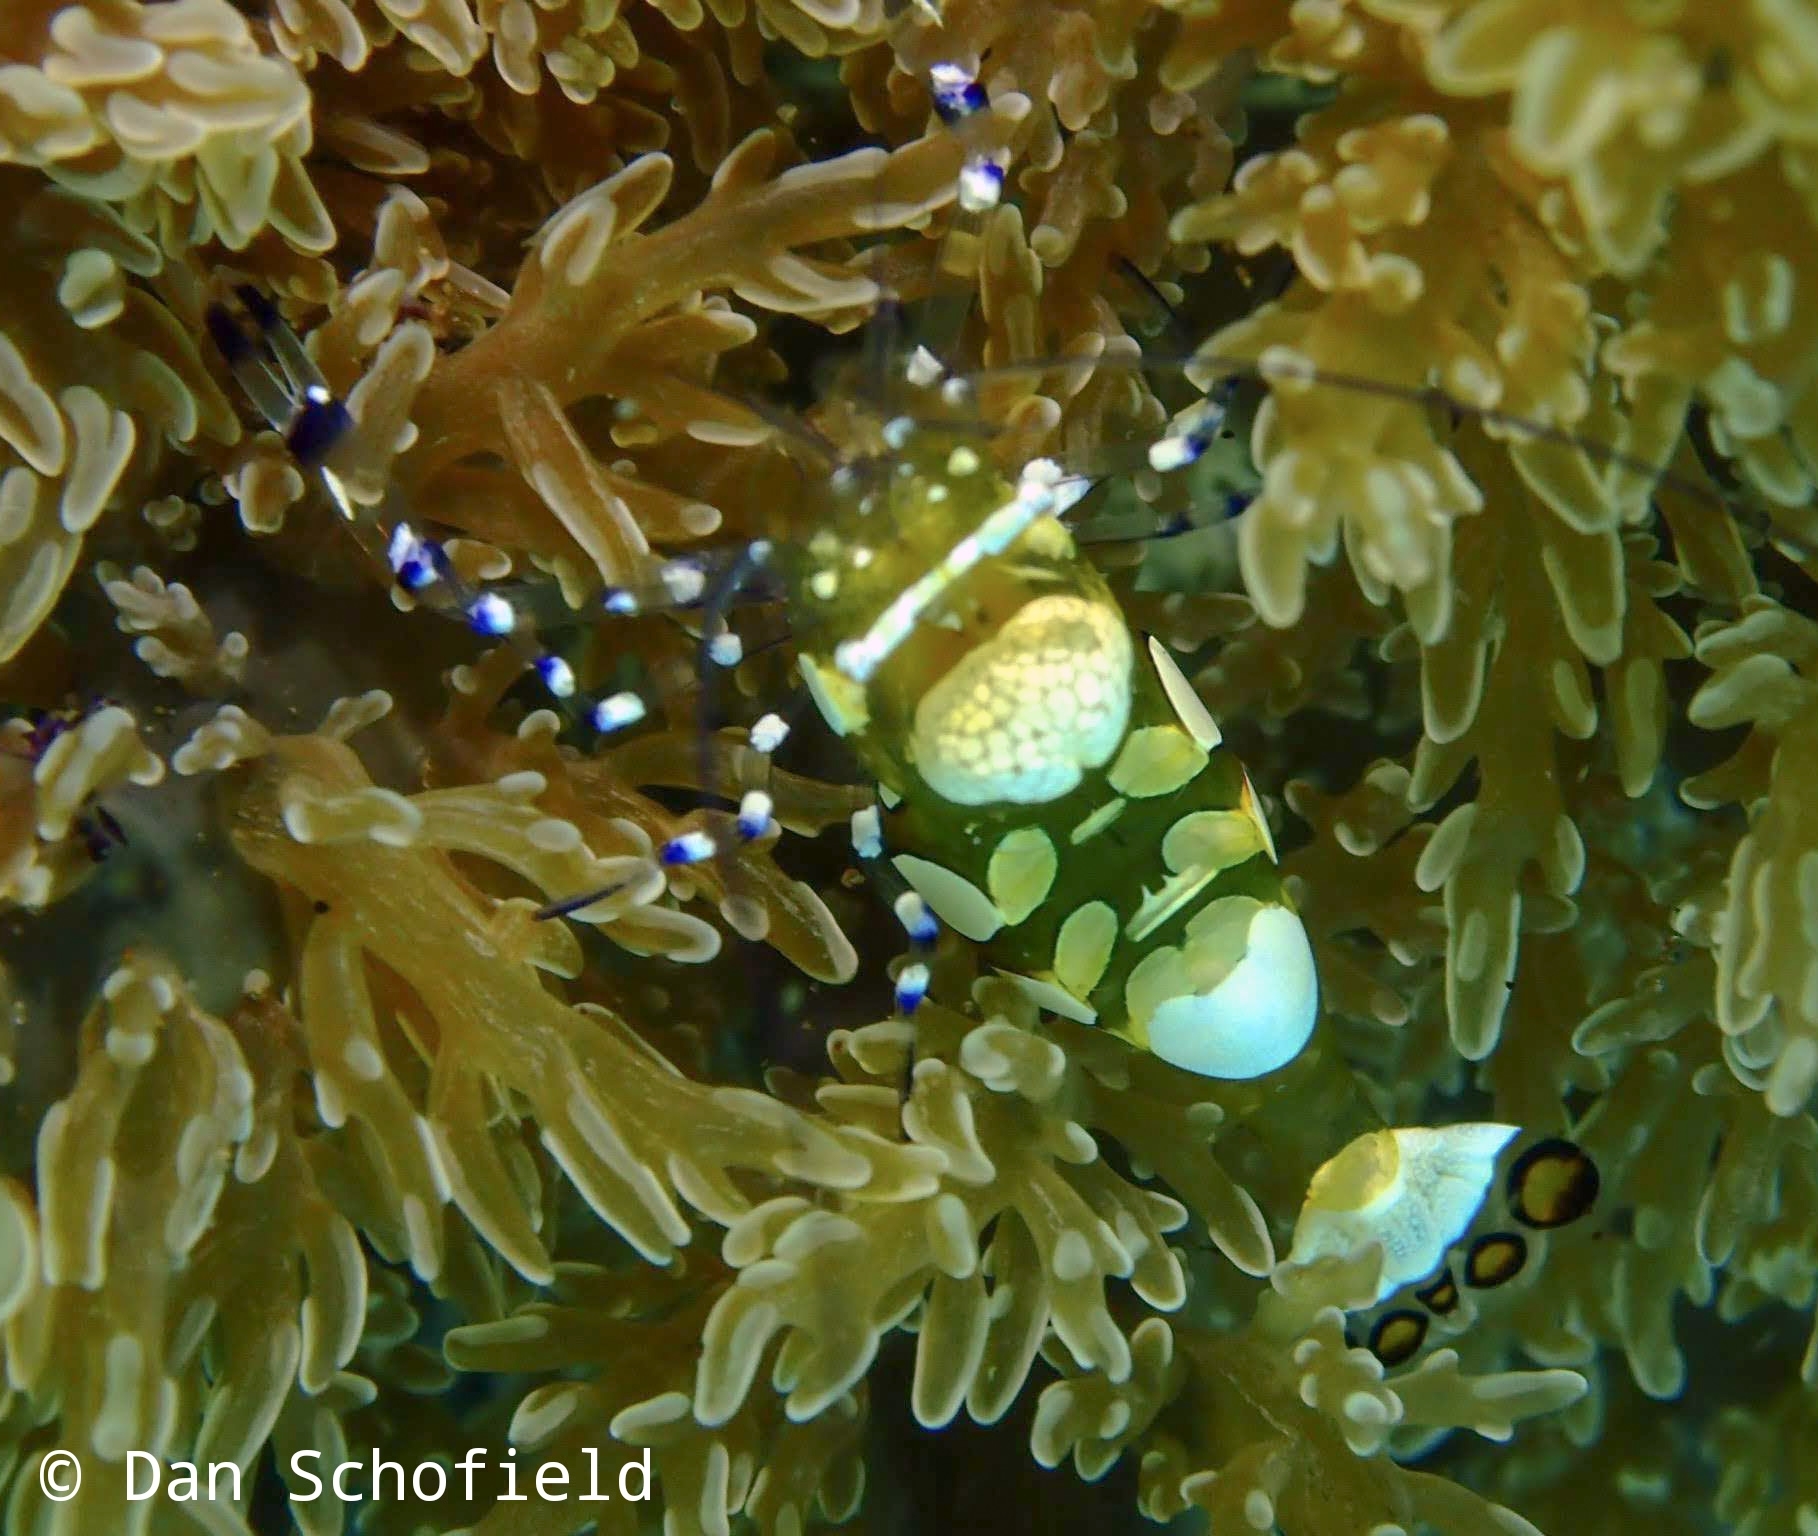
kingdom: Animalia
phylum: Arthropoda
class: Malacostraca
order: Decapoda
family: Palaemonidae
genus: Ancylocaris
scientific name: Ancylocaris brevicarpalis
